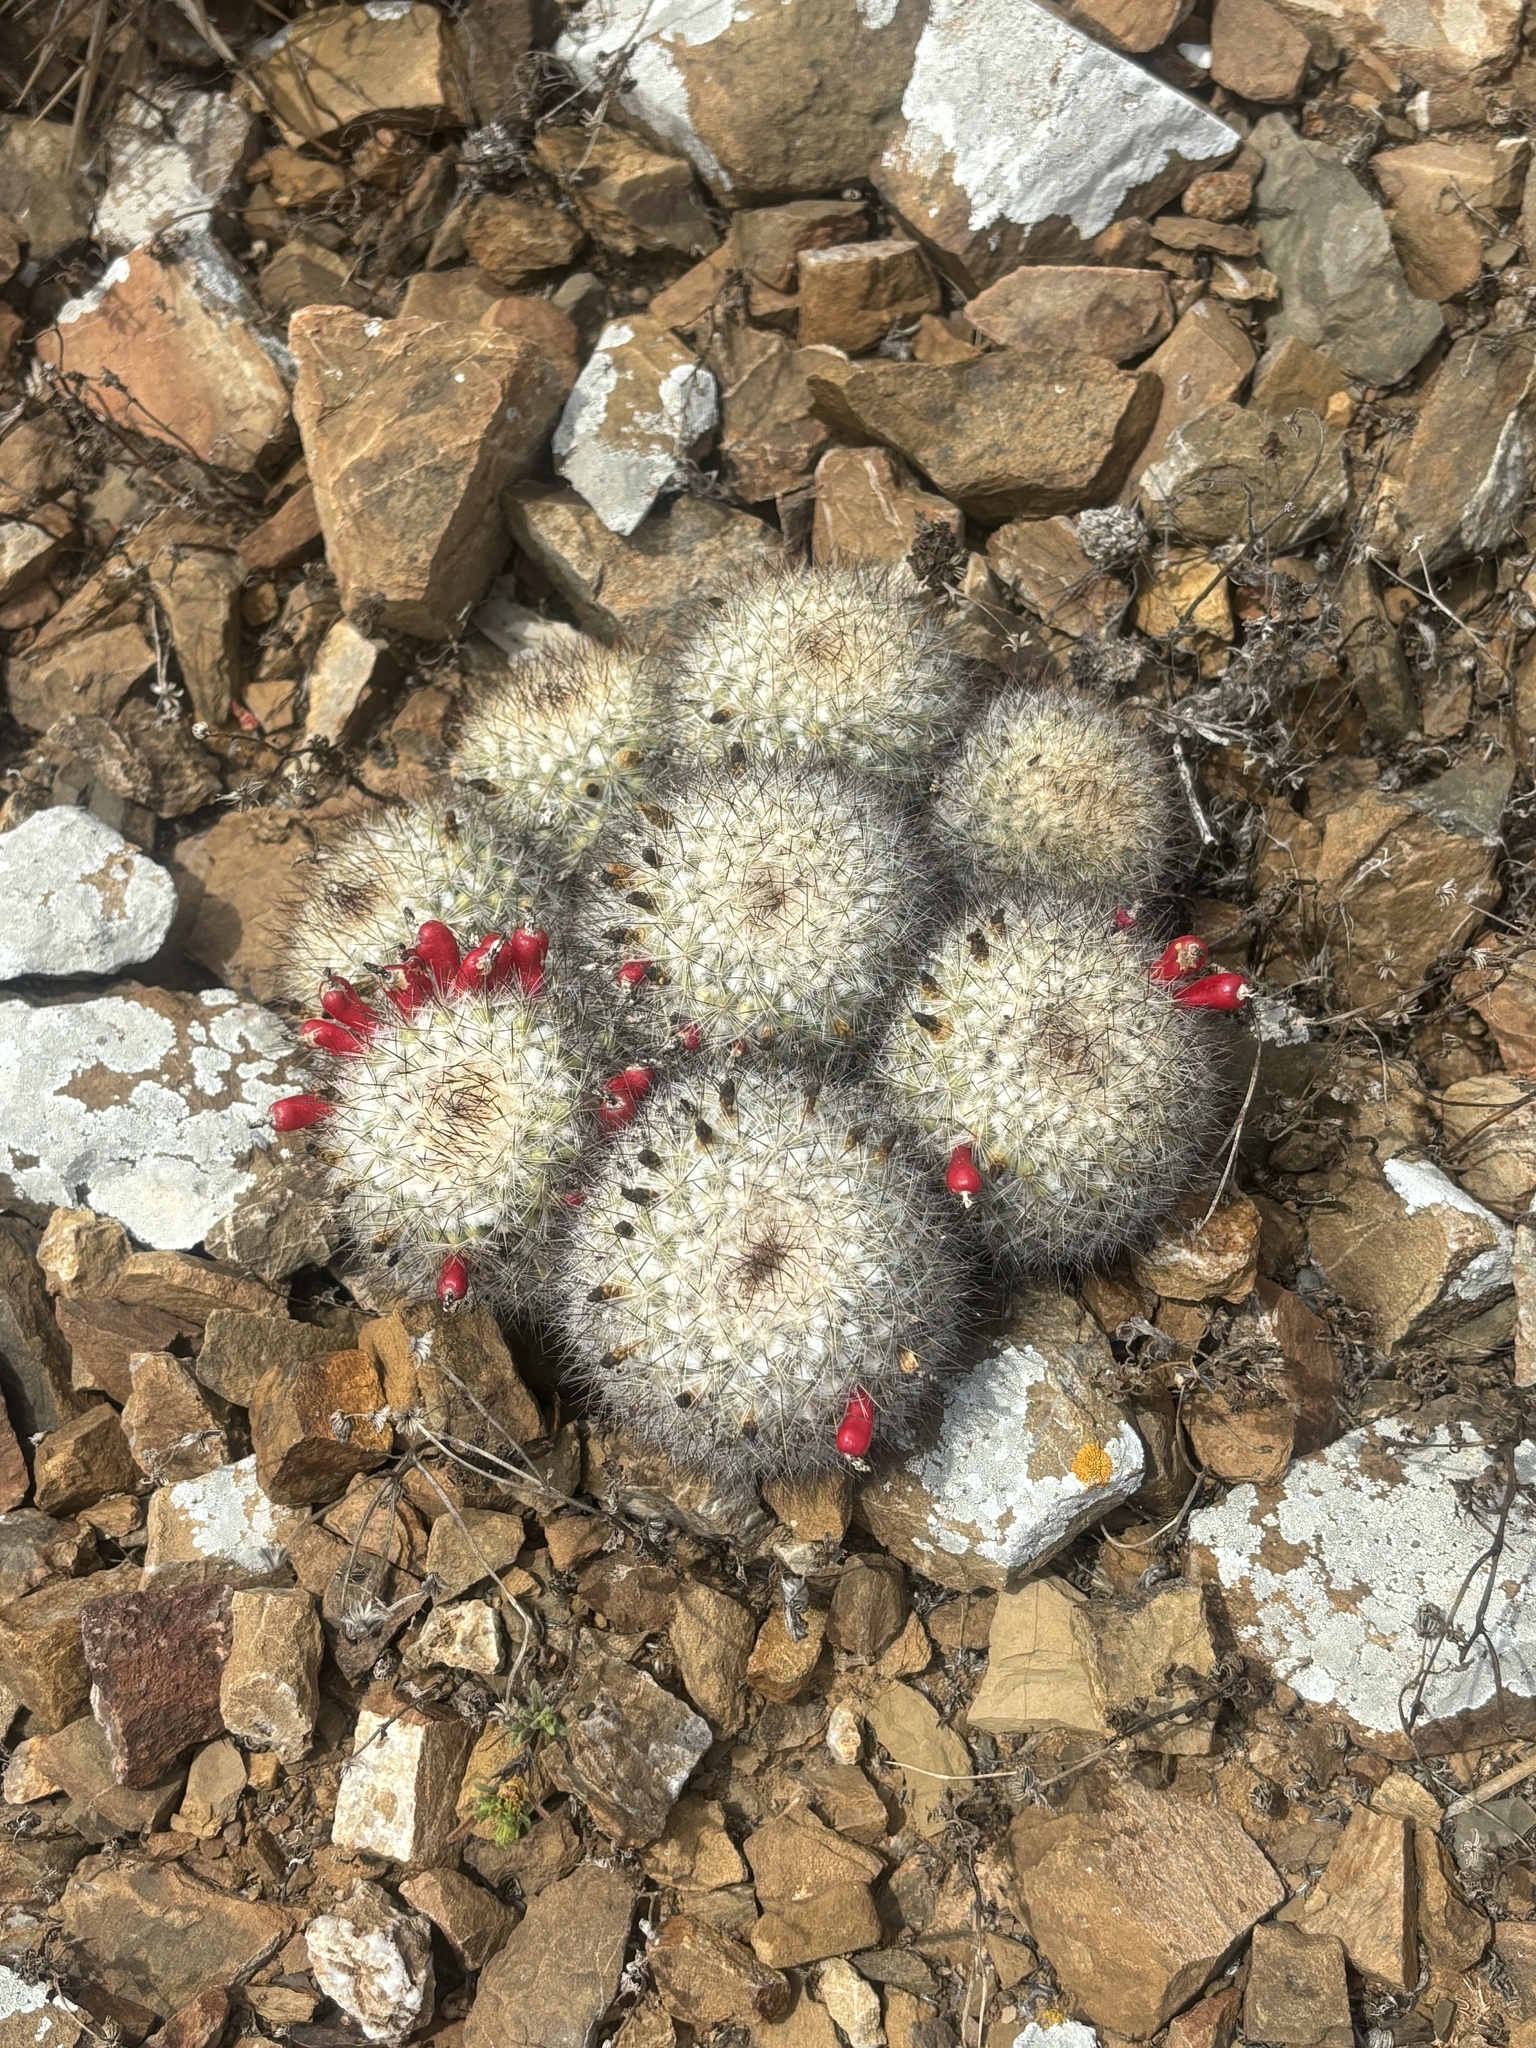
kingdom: Plantae
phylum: Tracheophyta
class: Magnoliopsida
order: Caryophyllales
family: Cactaceae
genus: Cochemiea
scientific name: Cochemiea palmeri
